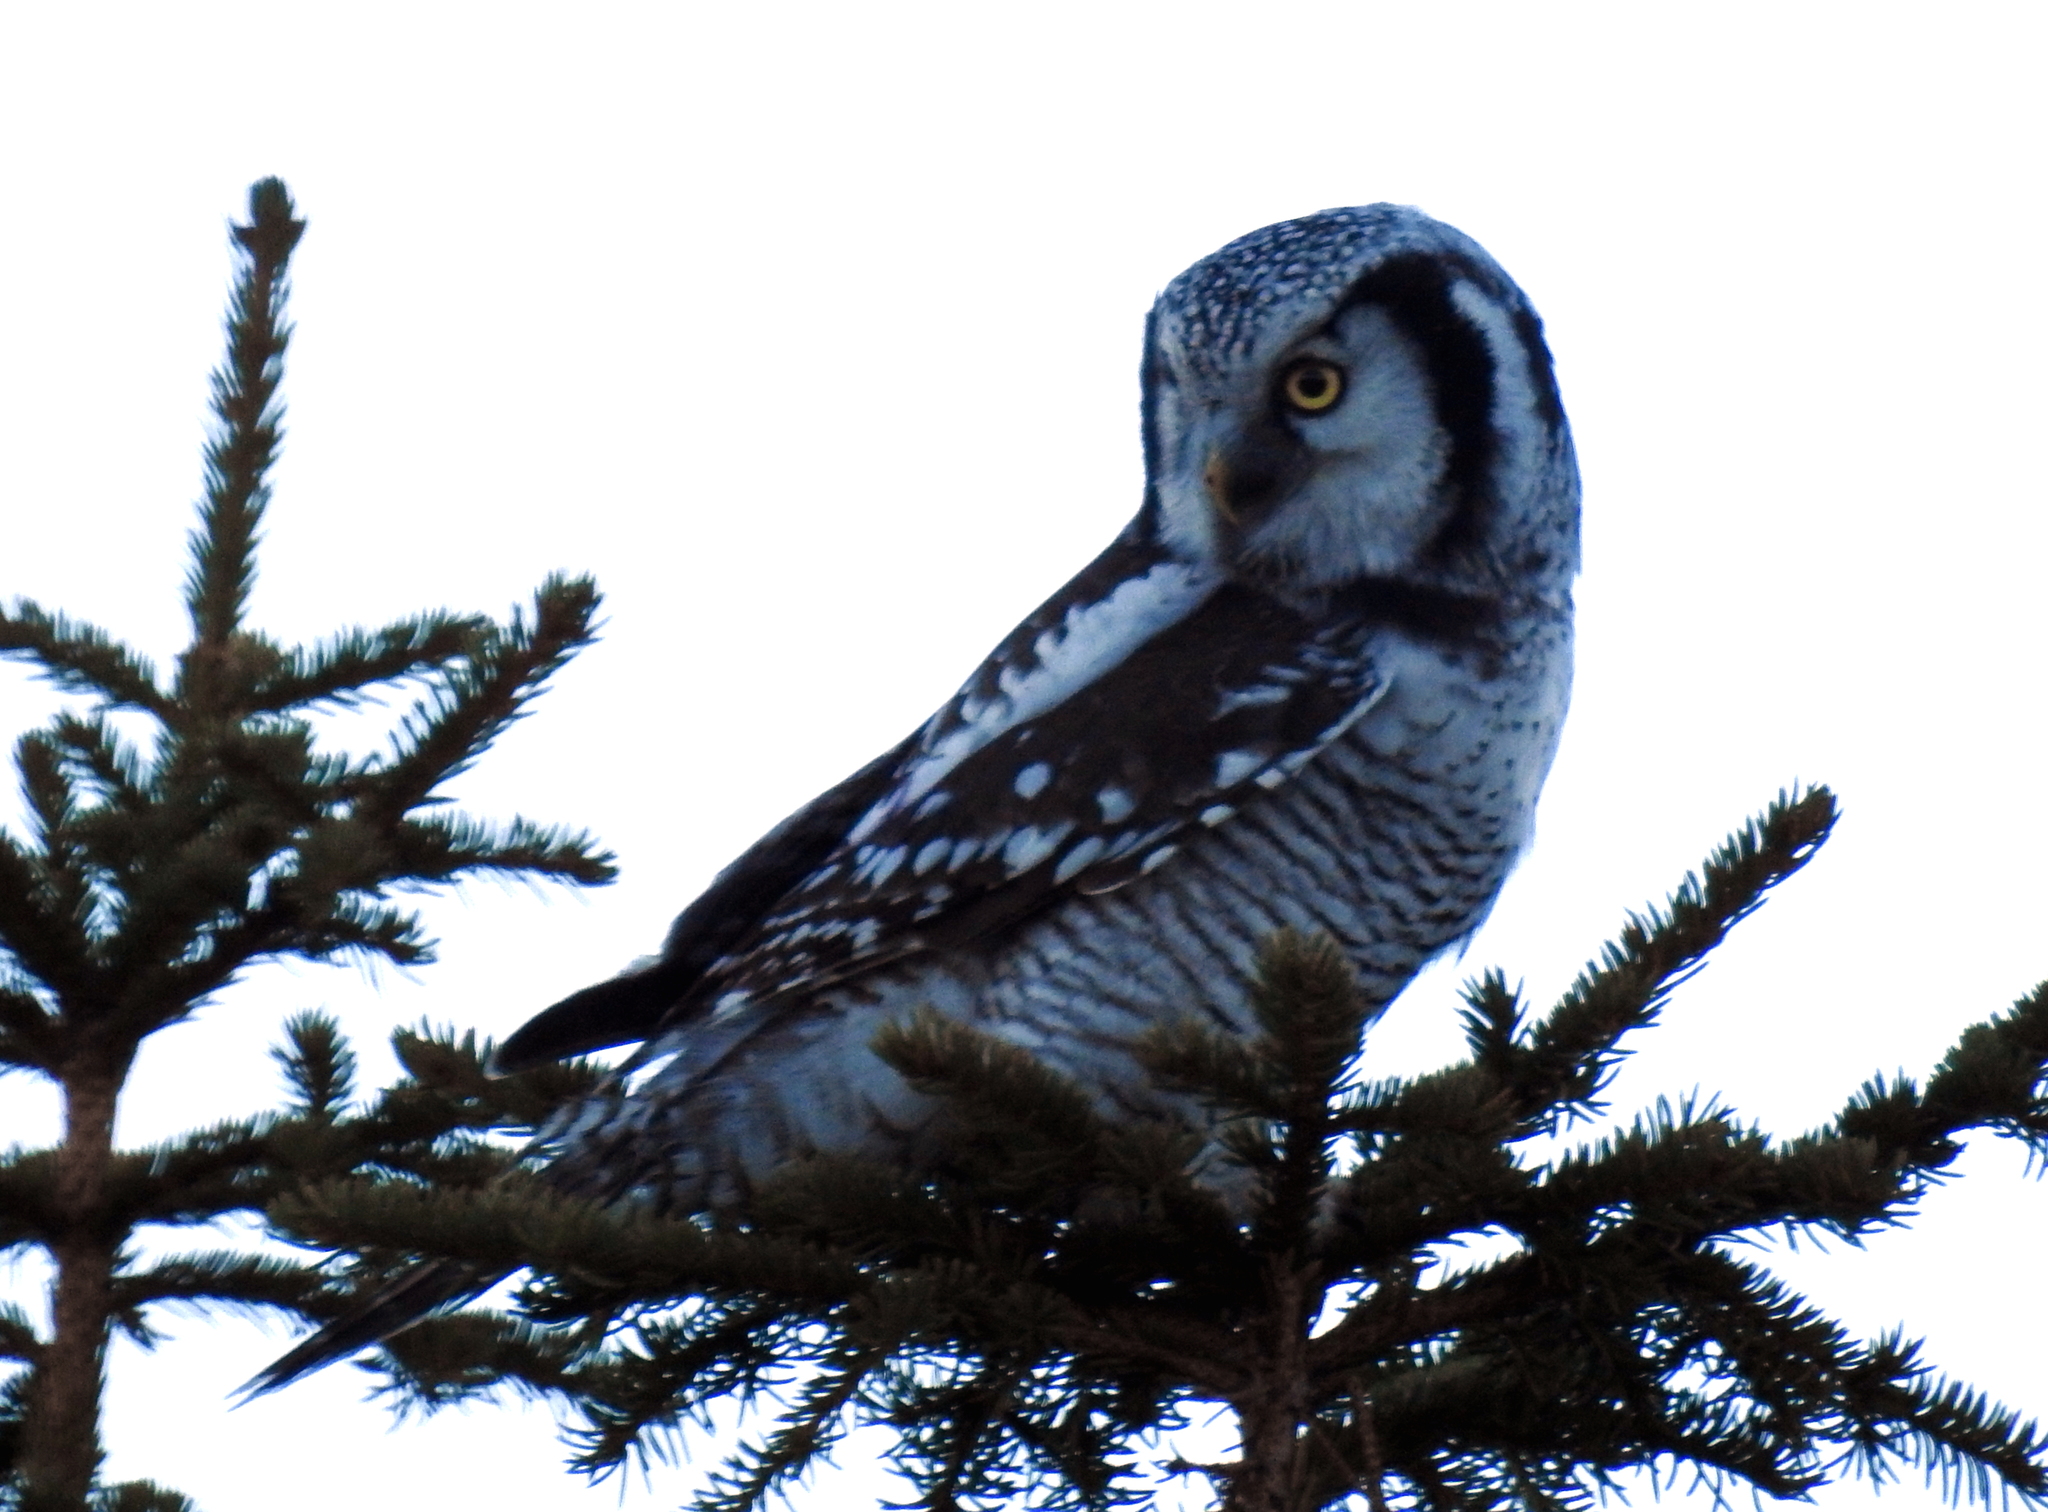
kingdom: Animalia
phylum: Chordata
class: Aves
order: Strigiformes
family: Strigidae
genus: Surnia
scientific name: Surnia ulula
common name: Northern hawk-owl
